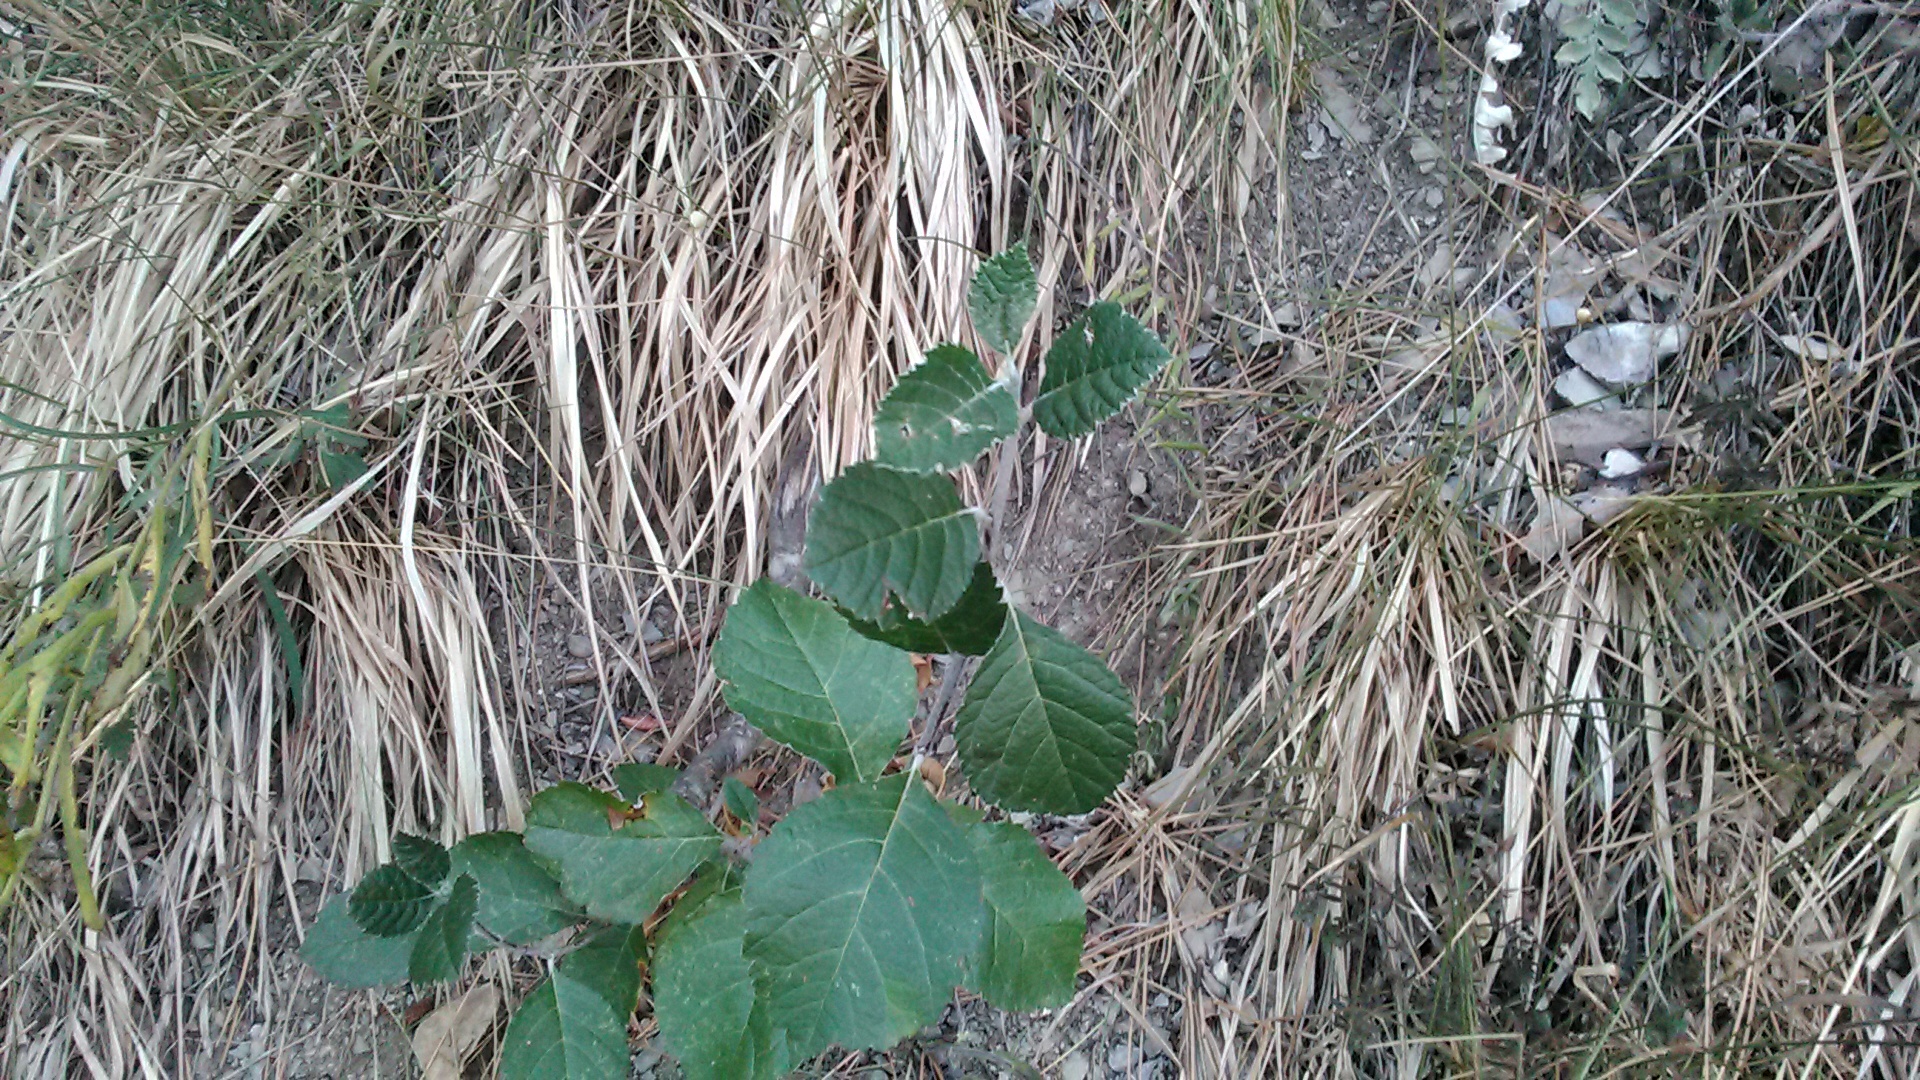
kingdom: Plantae
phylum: Tracheophyta
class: Magnoliopsida
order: Rosales
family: Moraceae
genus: Morus
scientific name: Morus nigra
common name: Black mulberry
